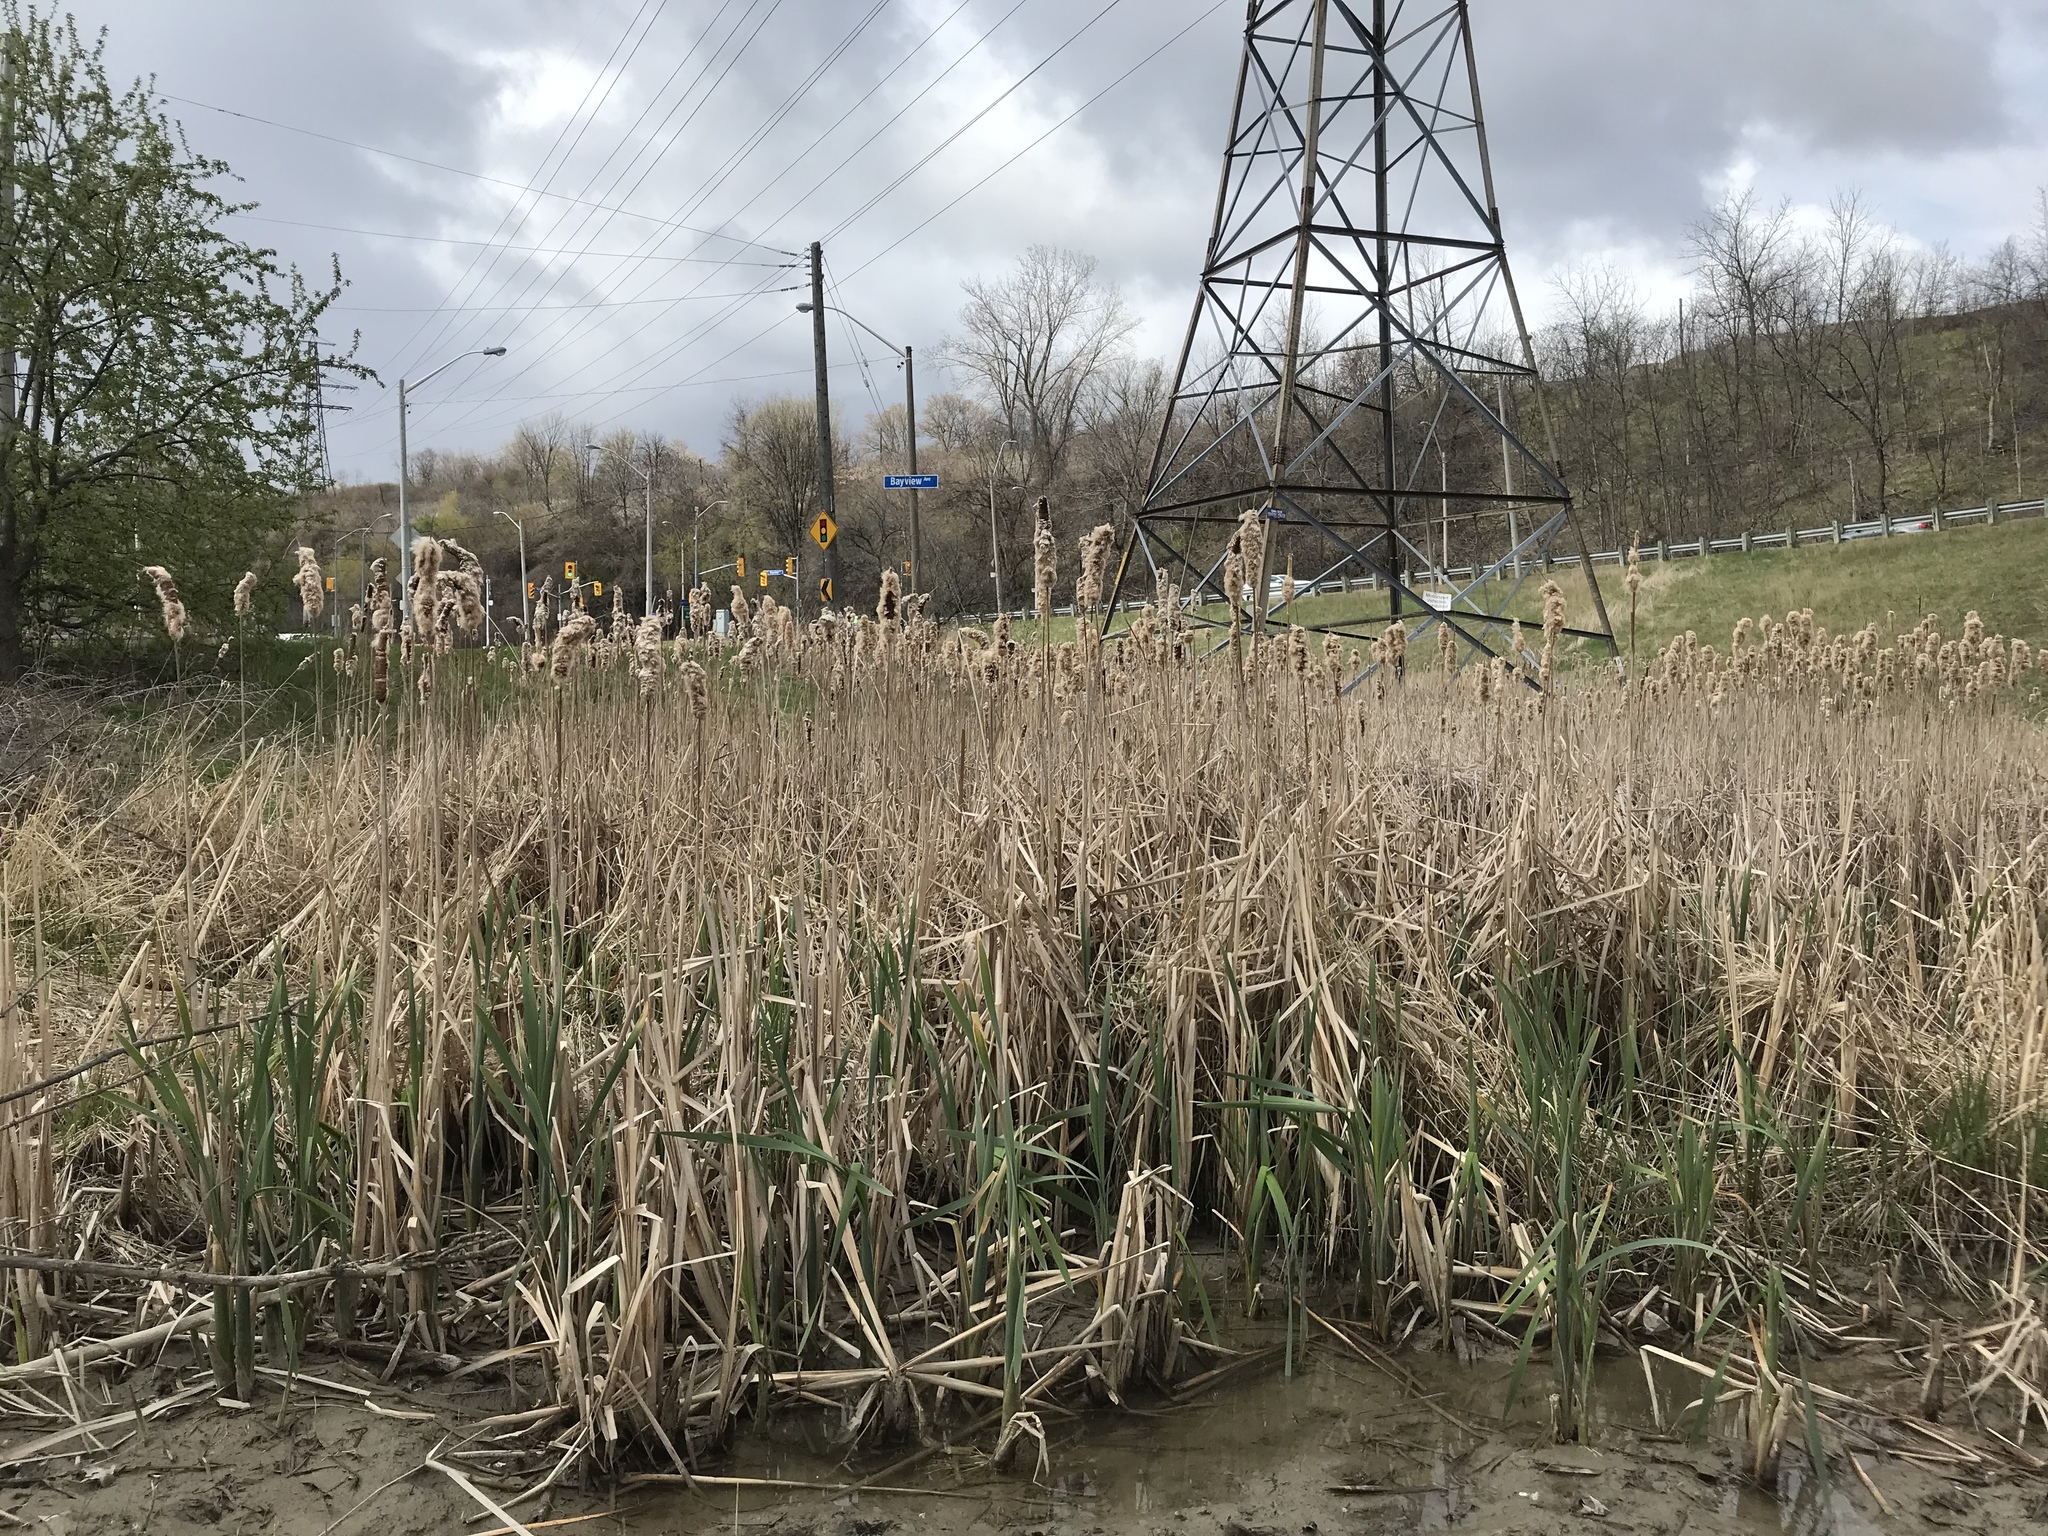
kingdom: Plantae
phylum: Tracheophyta
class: Liliopsida
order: Poales
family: Typhaceae
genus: Typha
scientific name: Typha latifolia
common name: Broadleaf cattail
